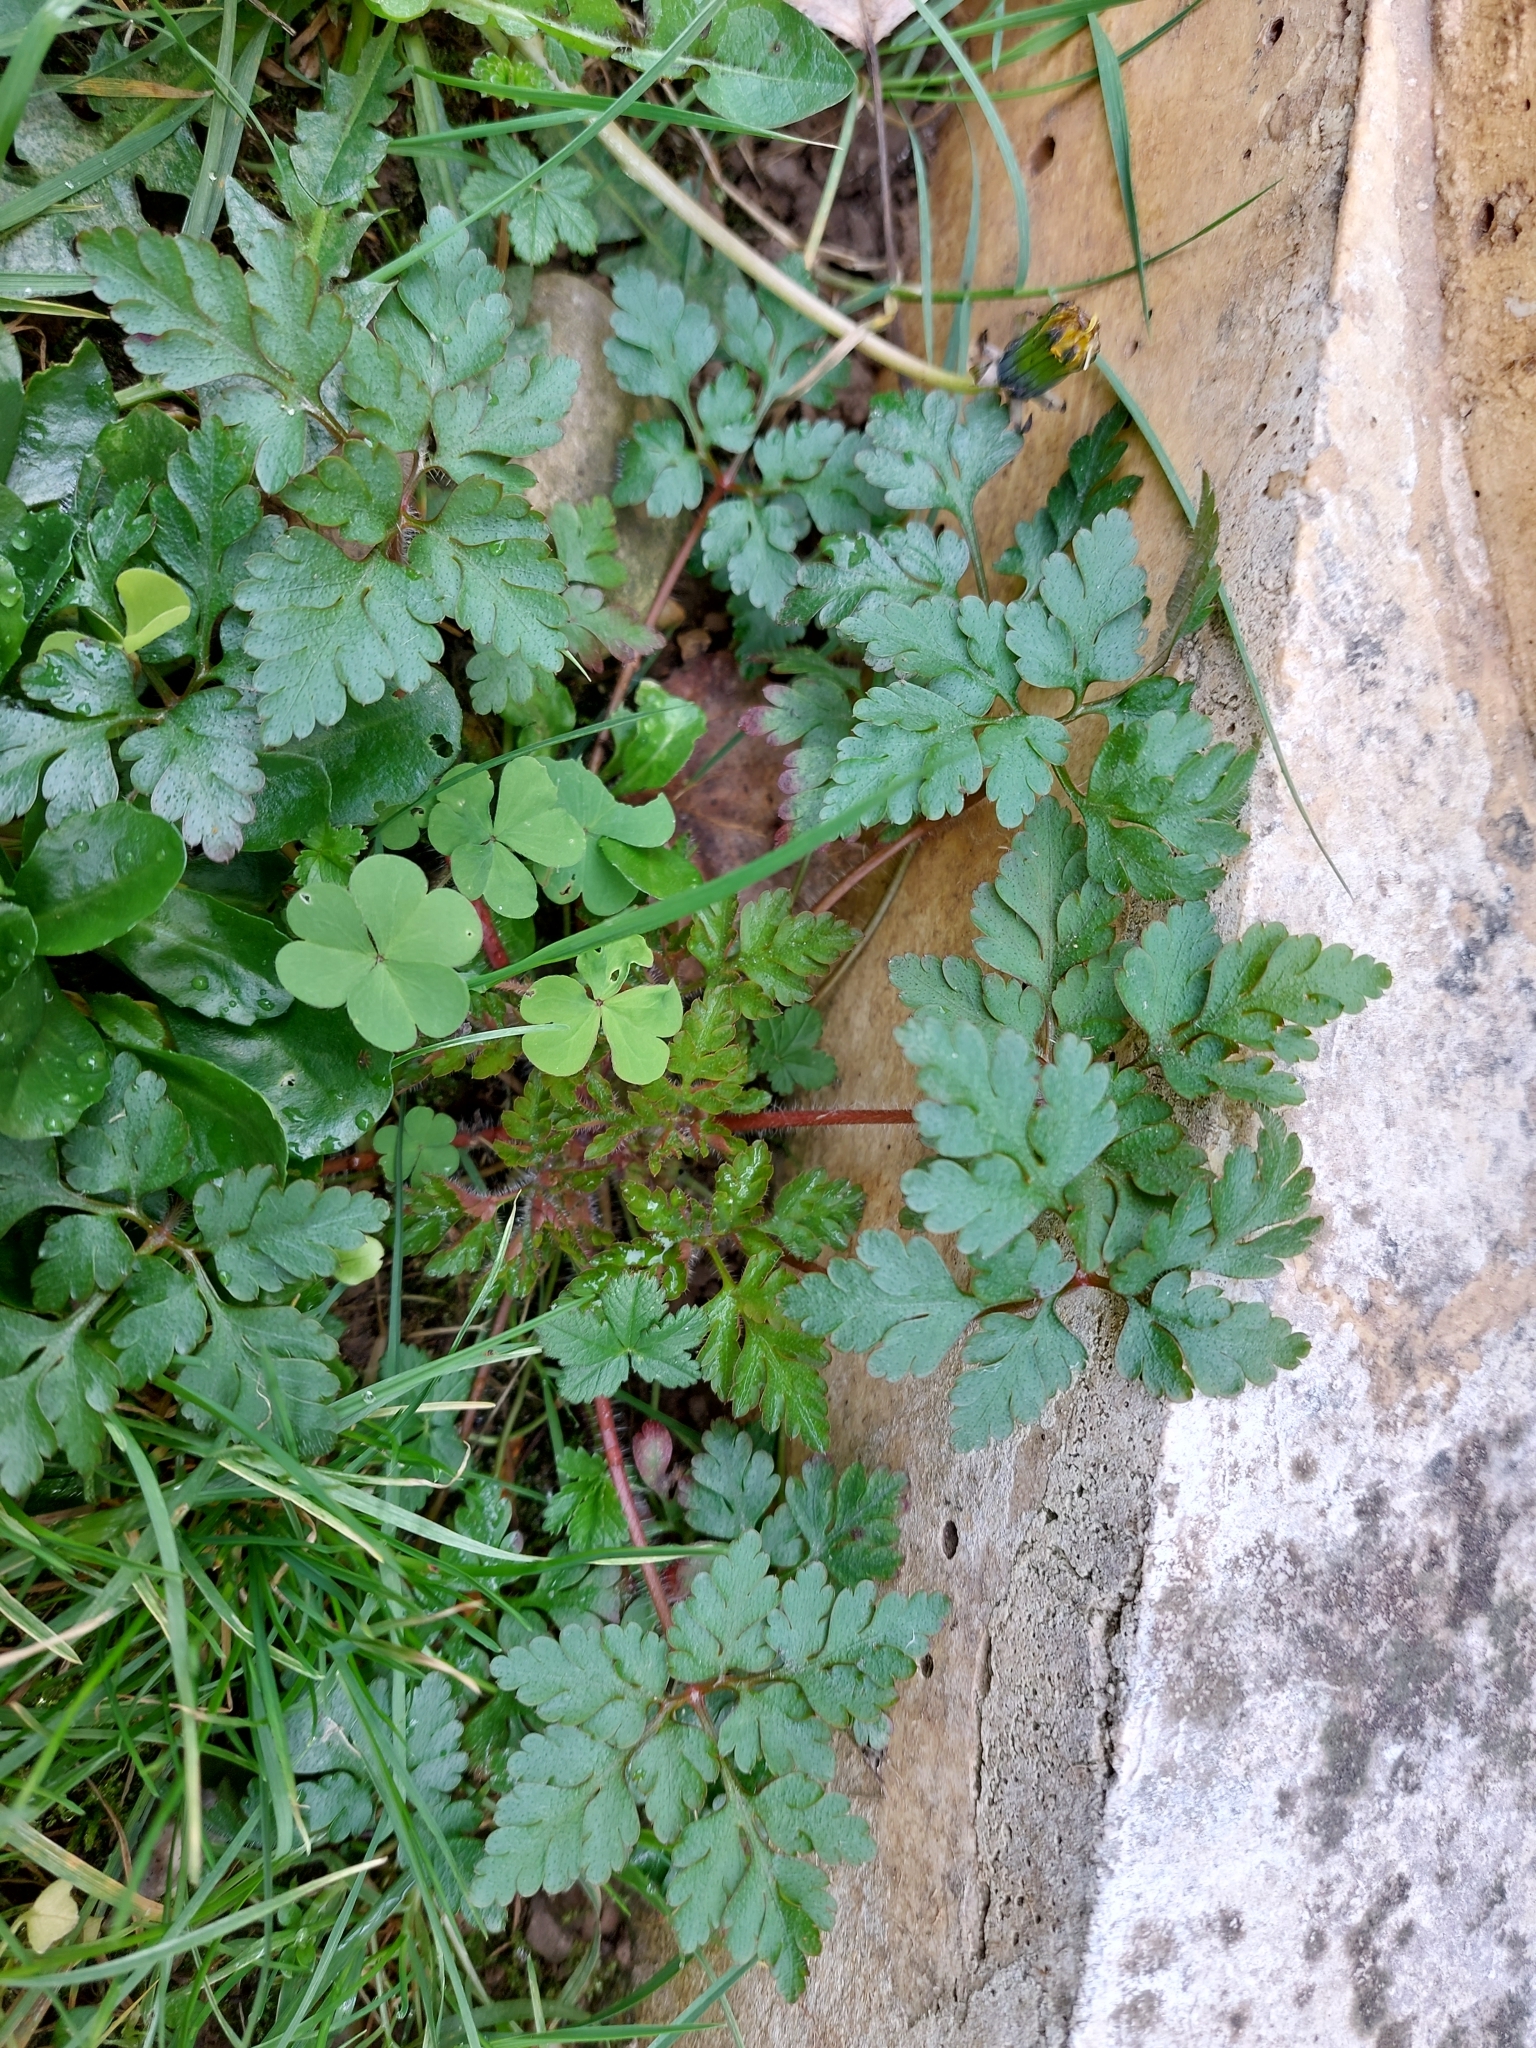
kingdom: Plantae
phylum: Tracheophyta
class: Magnoliopsida
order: Geraniales
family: Geraniaceae
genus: Geranium
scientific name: Geranium robertianum
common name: Herb-robert
